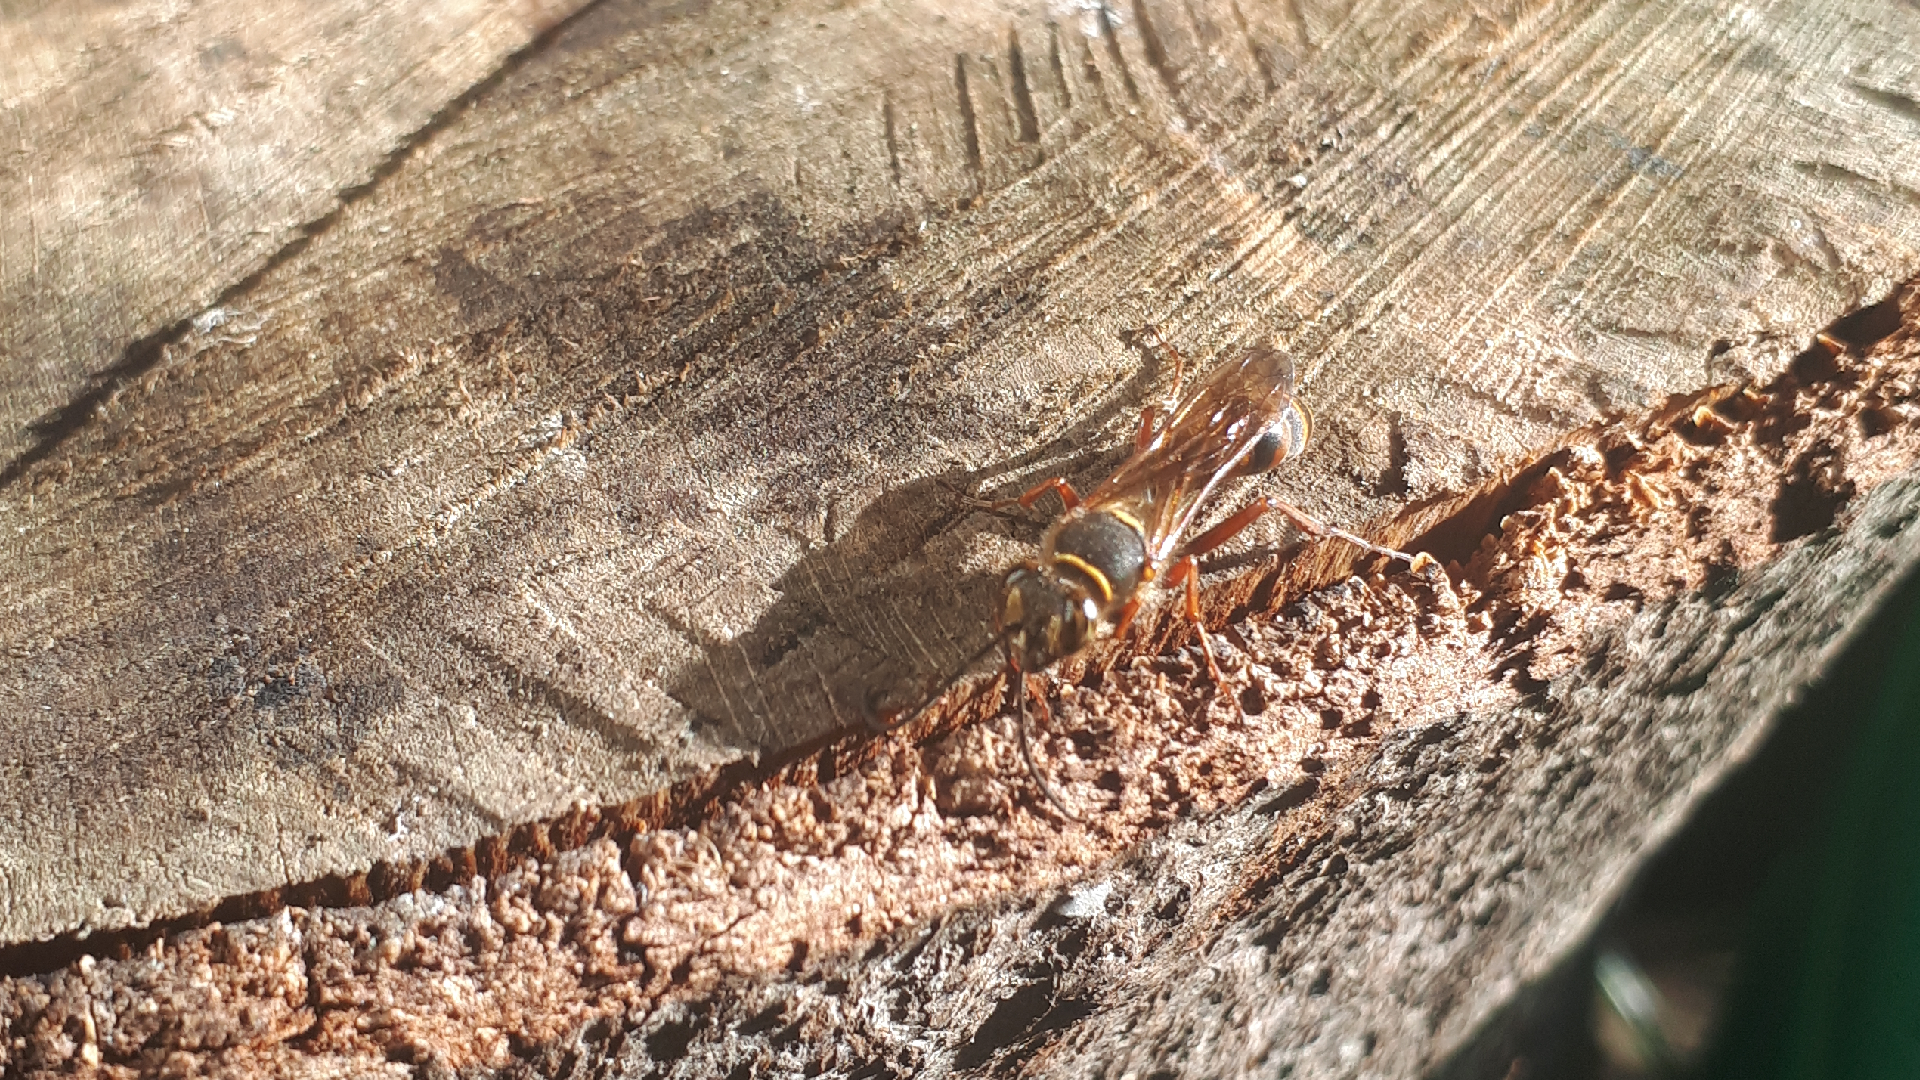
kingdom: Animalia
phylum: Arthropoda
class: Insecta
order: Hymenoptera
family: Sphecidae
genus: Sceliphron
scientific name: Sceliphron curvatum
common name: Pèlopèe
